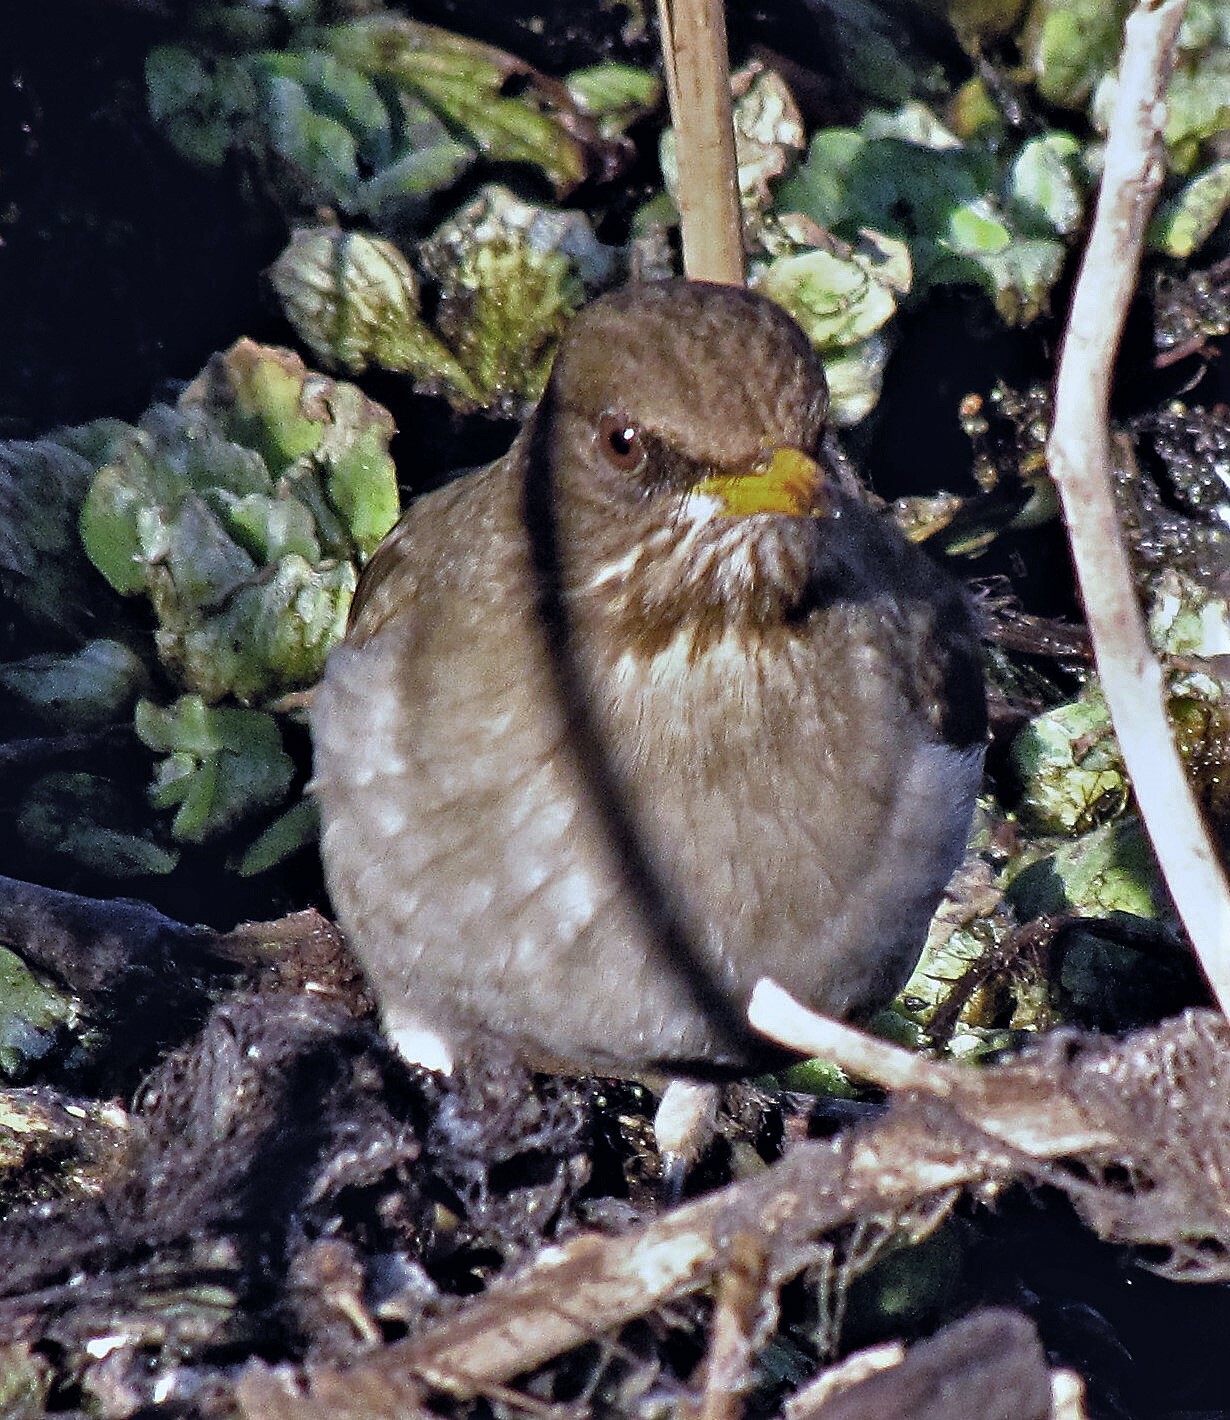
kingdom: Animalia
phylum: Chordata
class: Aves
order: Passeriformes
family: Turdidae
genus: Turdus
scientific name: Turdus amaurochalinus
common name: Creamy-bellied thrush
